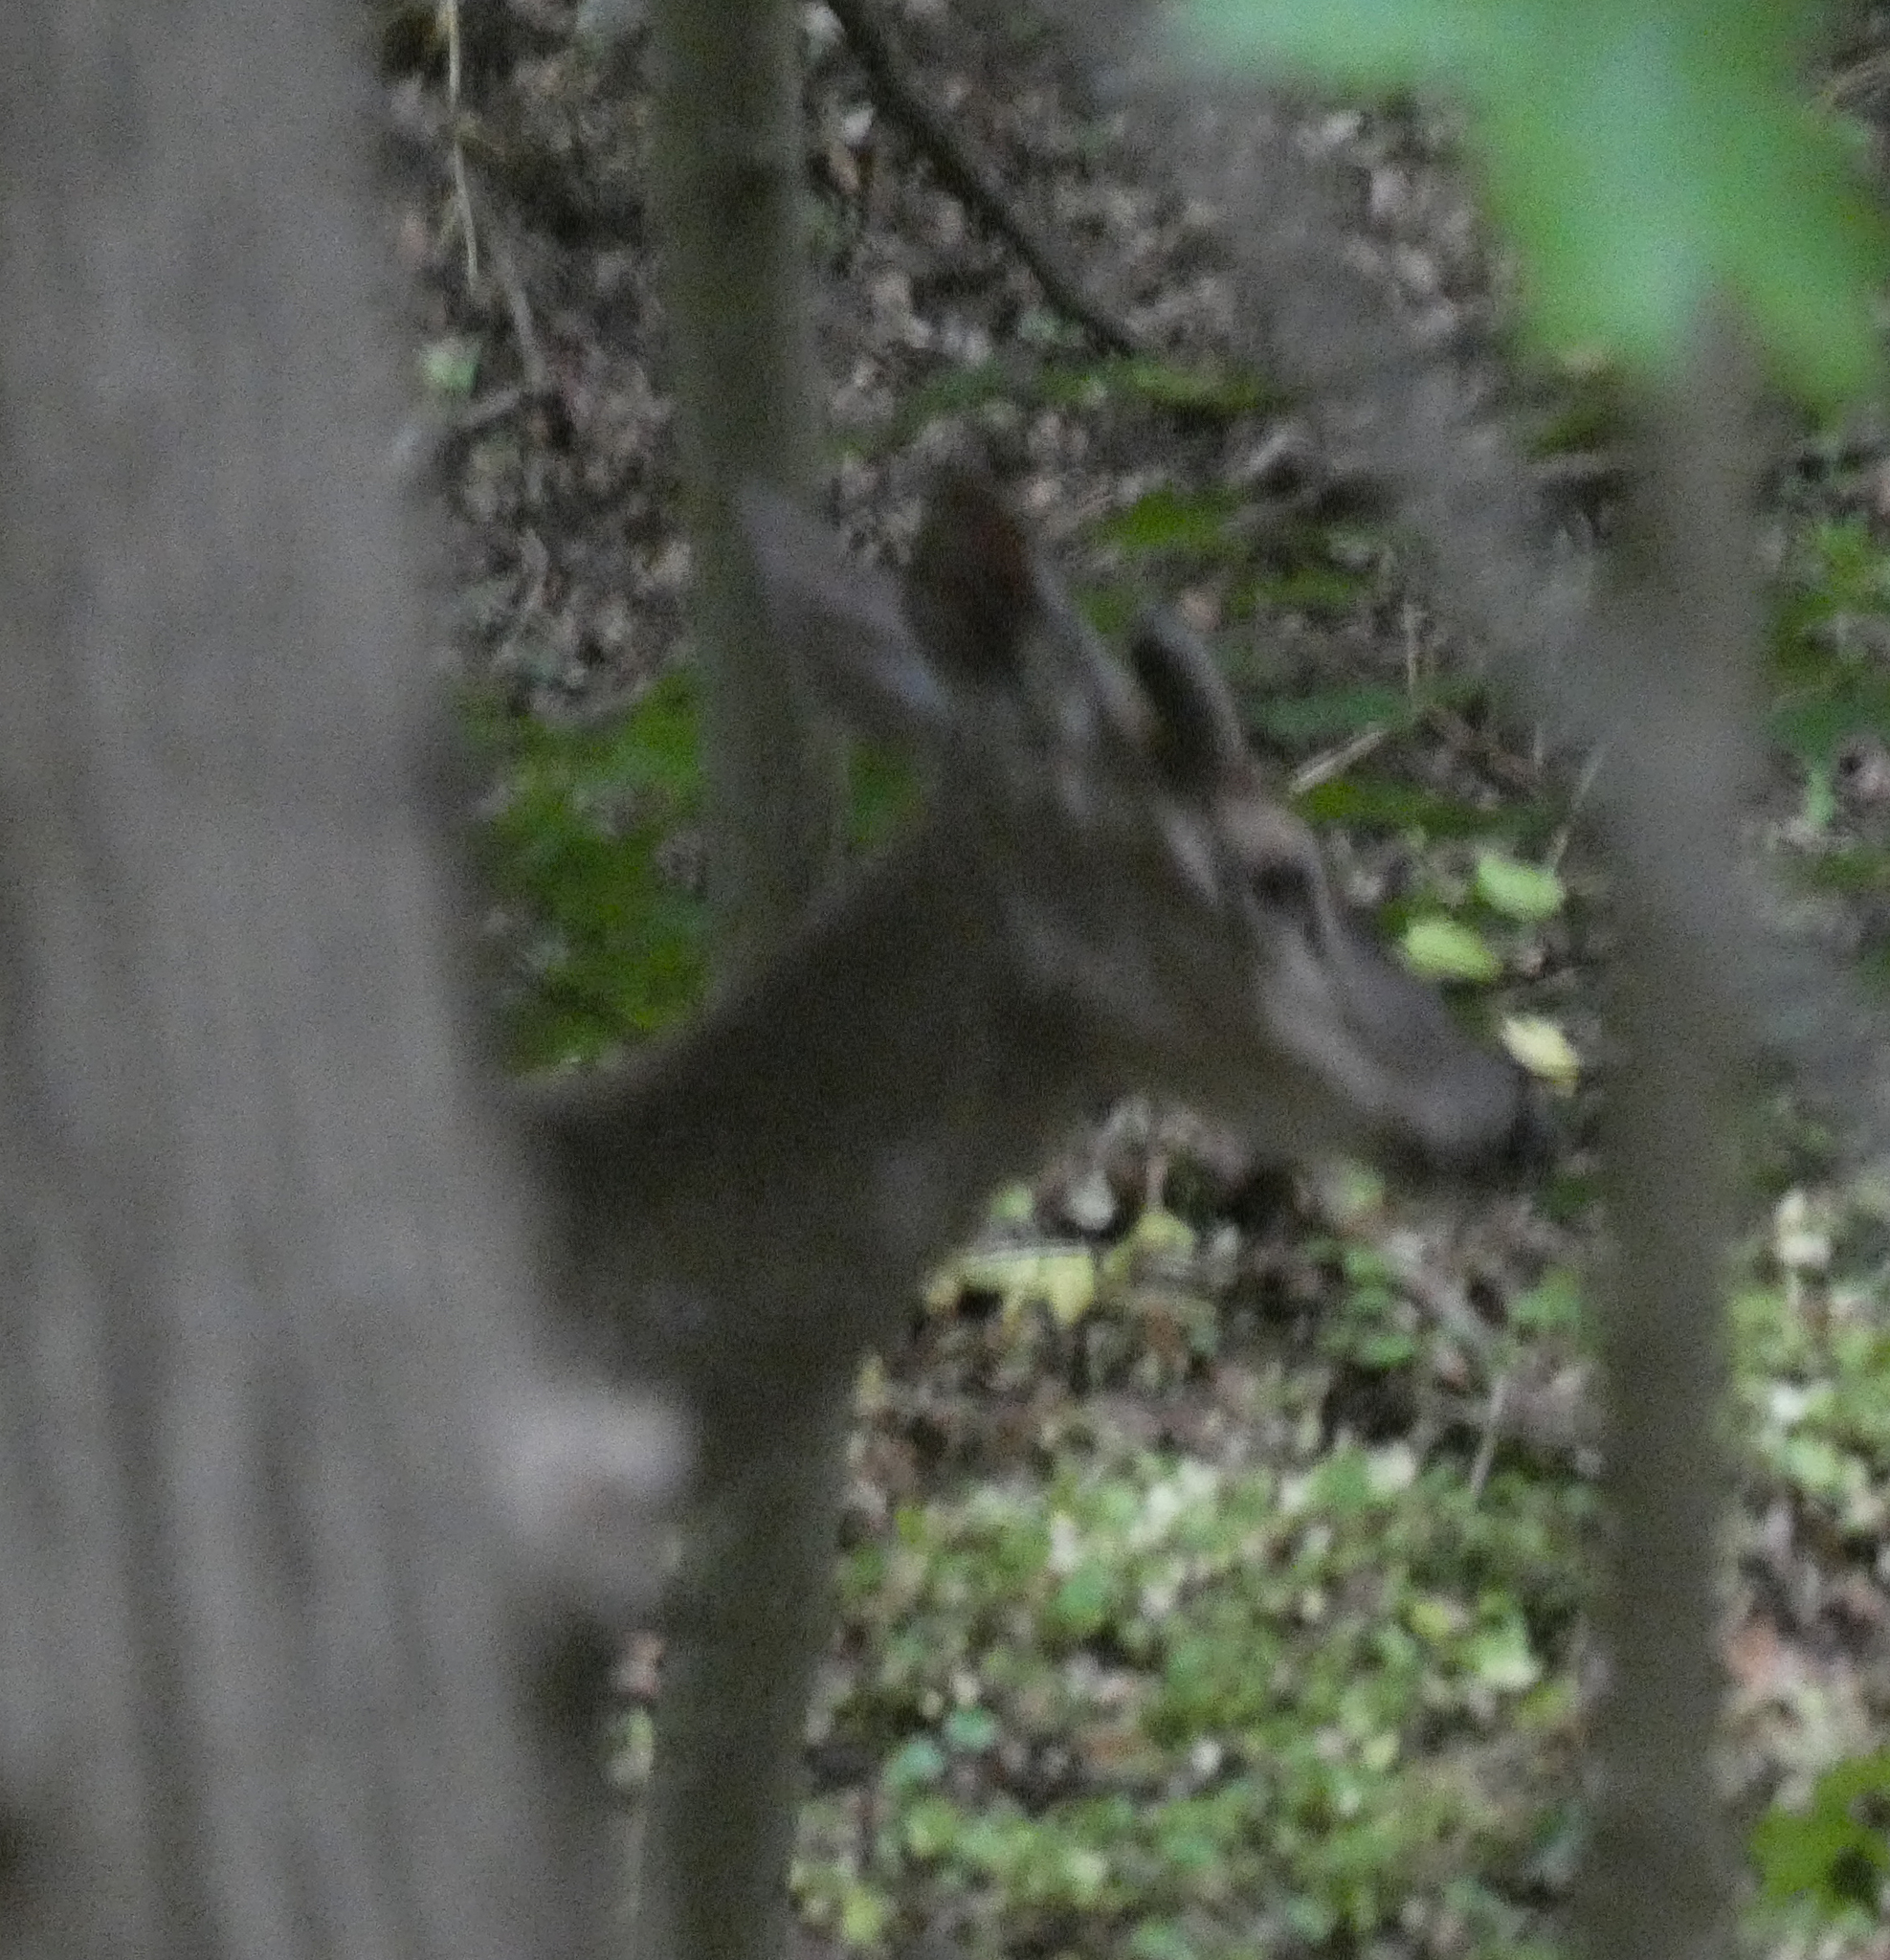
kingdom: Animalia
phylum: Chordata
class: Mammalia
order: Artiodactyla
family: Cervidae
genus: Odocoileus
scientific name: Odocoileus virginianus
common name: White-tailed deer
